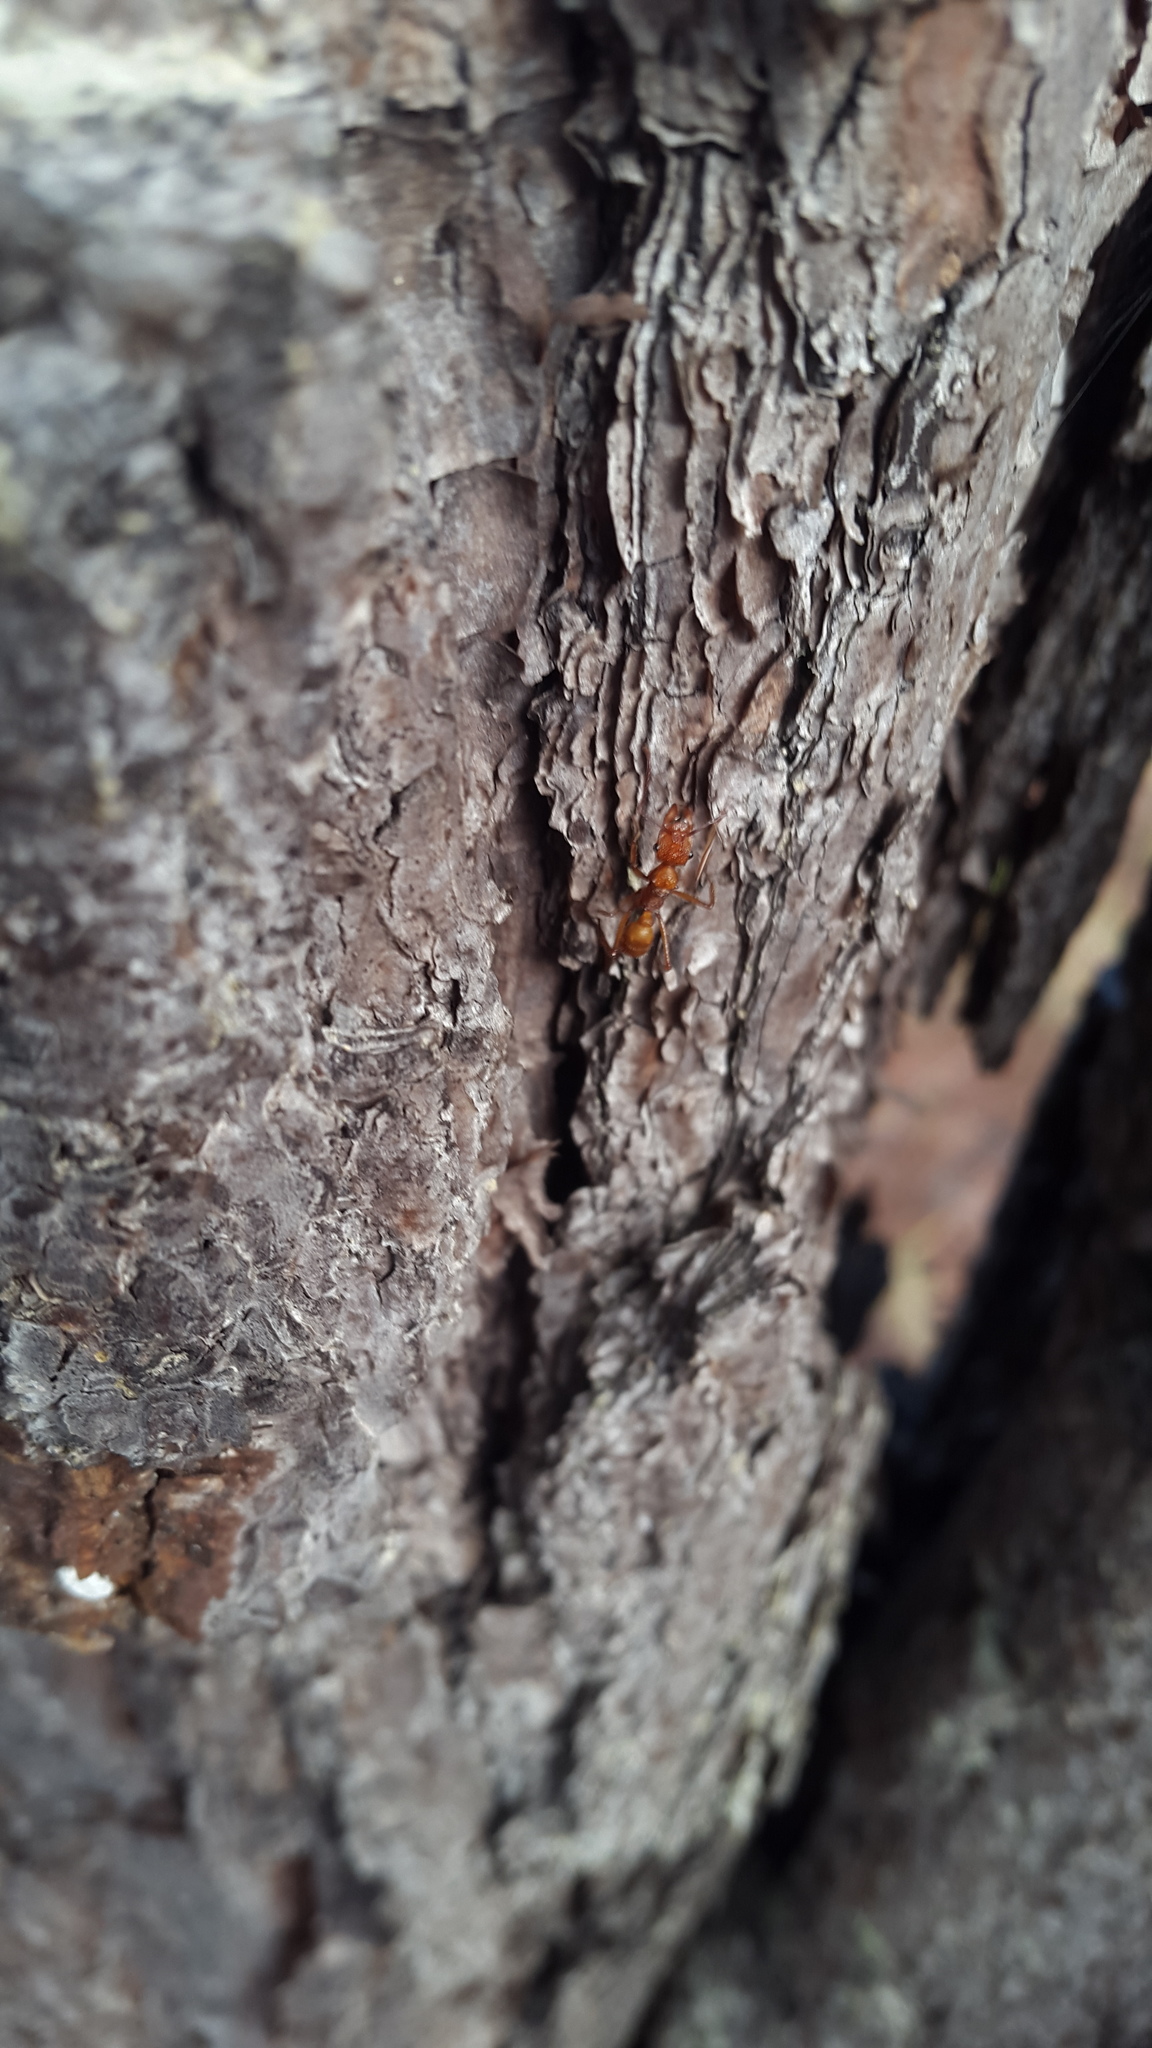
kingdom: Animalia
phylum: Arthropoda
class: Insecta
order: Hymenoptera
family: Formicidae
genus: Ectatomma
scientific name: Ectatomma tuberculatum
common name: Ant
